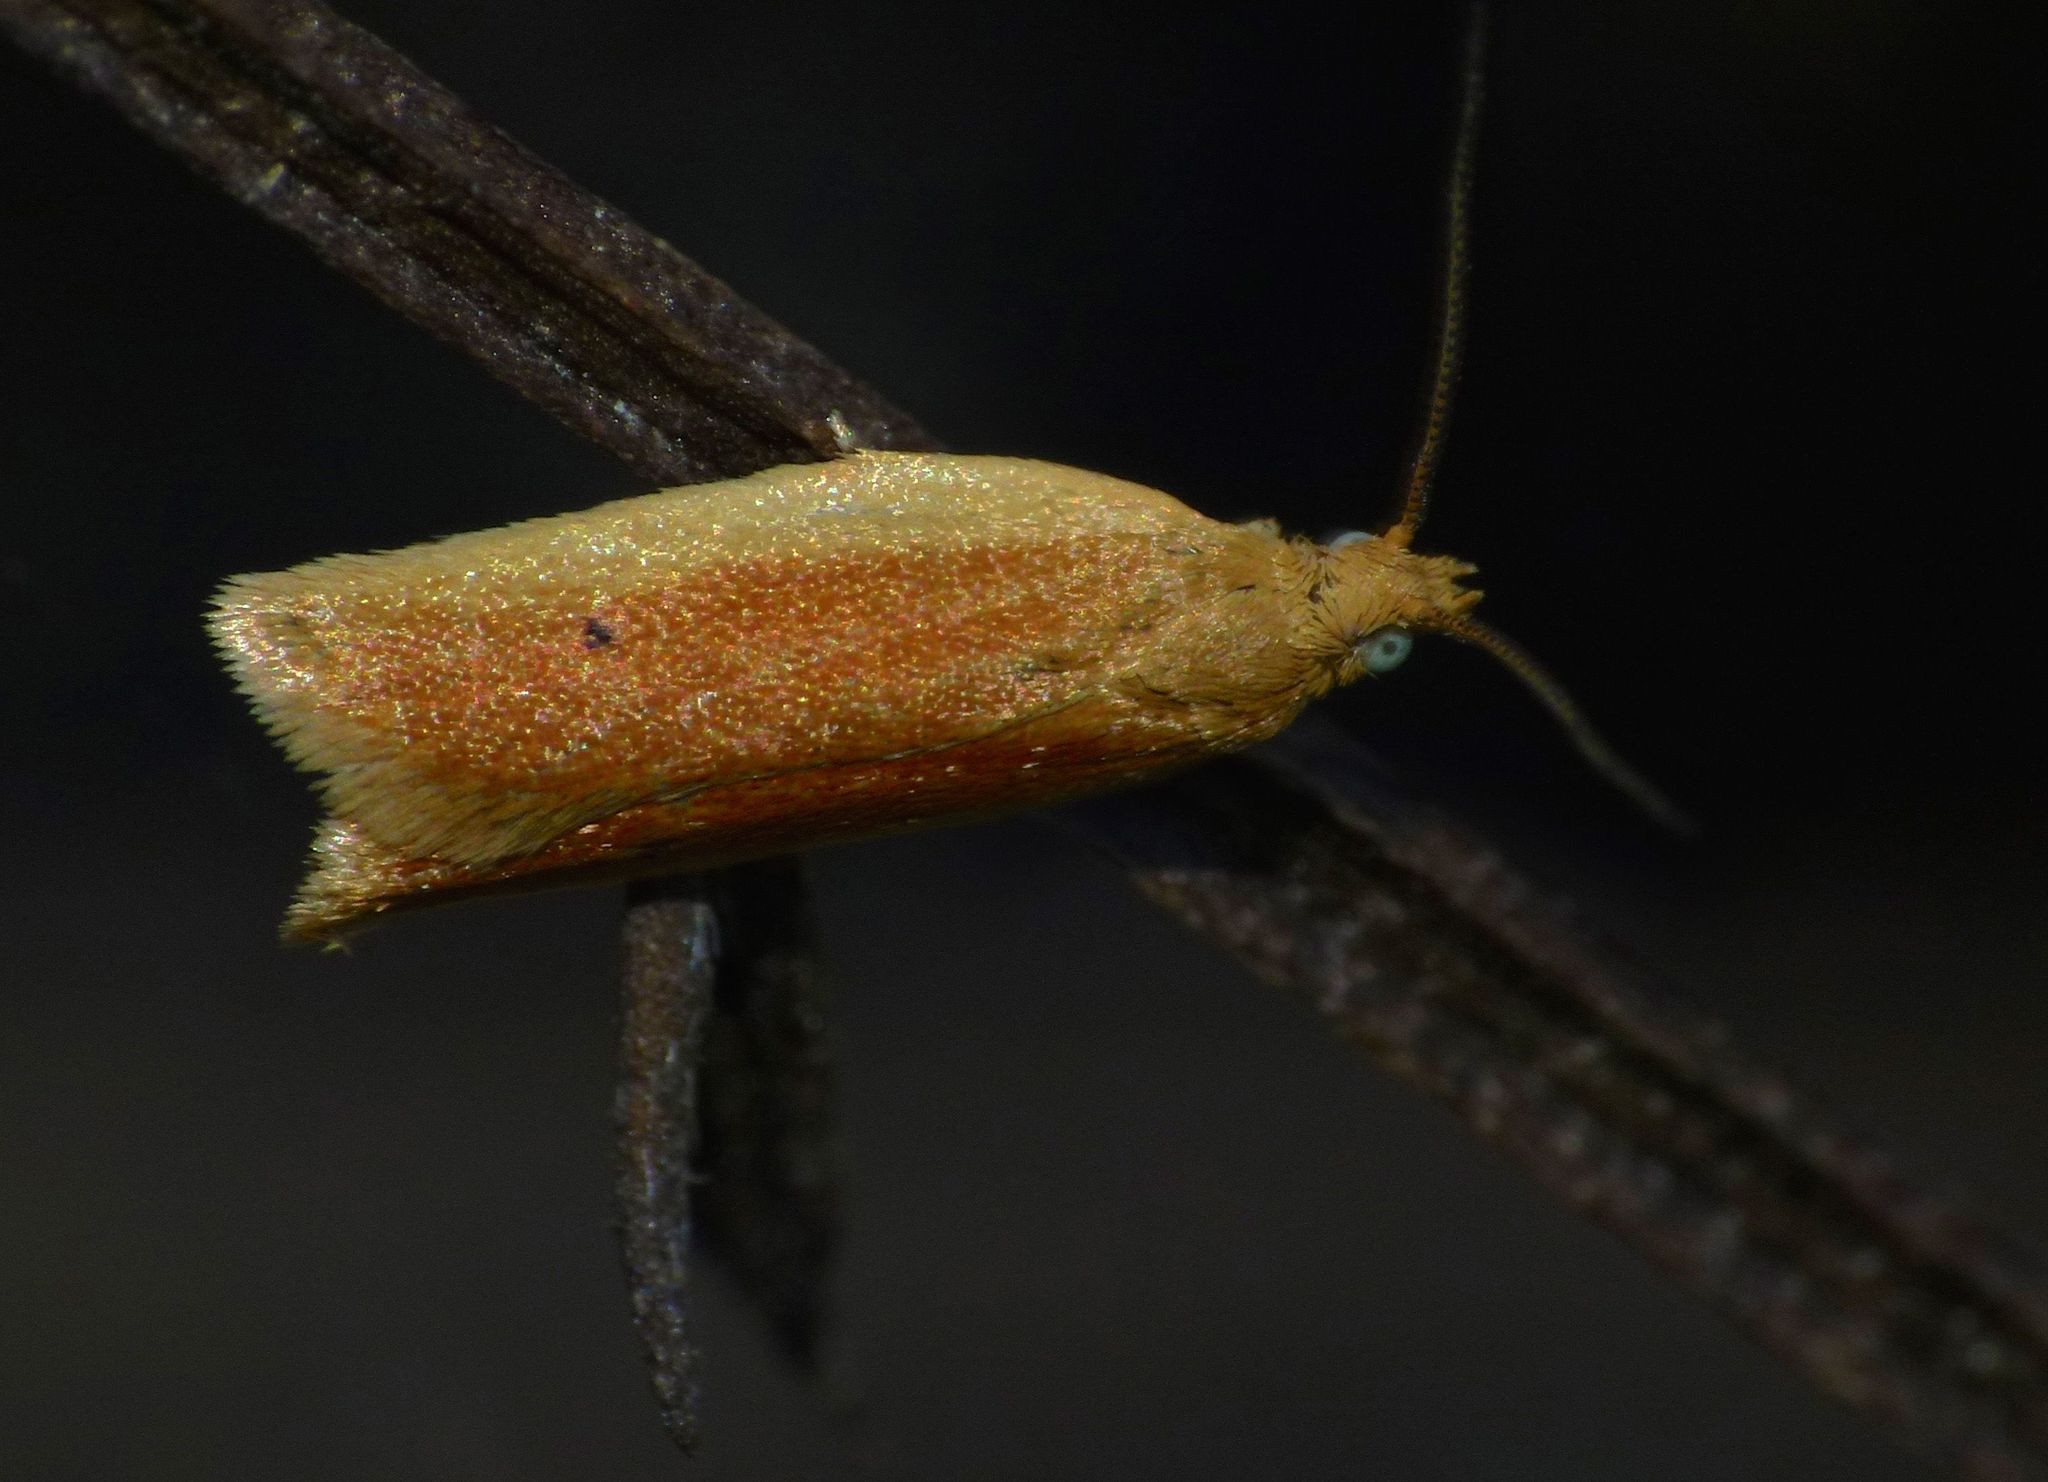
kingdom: Animalia
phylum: Arthropoda
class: Insecta
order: Lepidoptera
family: Tortricidae
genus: Epichorista
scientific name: Epichorista siriana
